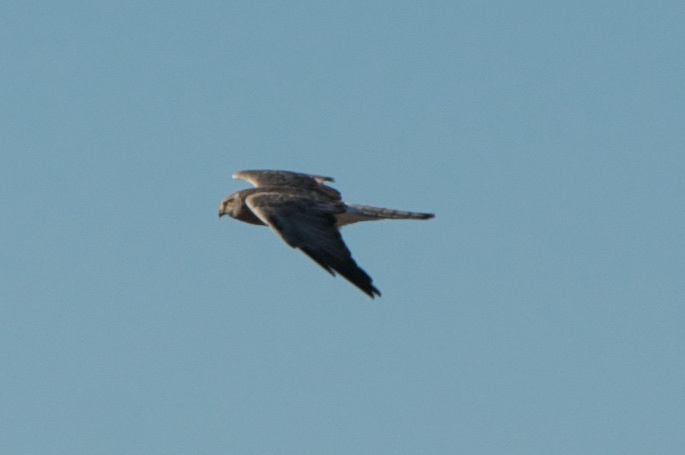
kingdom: Animalia
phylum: Chordata
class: Aves
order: Accipitriformes
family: Accipitridae
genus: Circus
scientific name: Circus cyaneus
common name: Hen harrier
